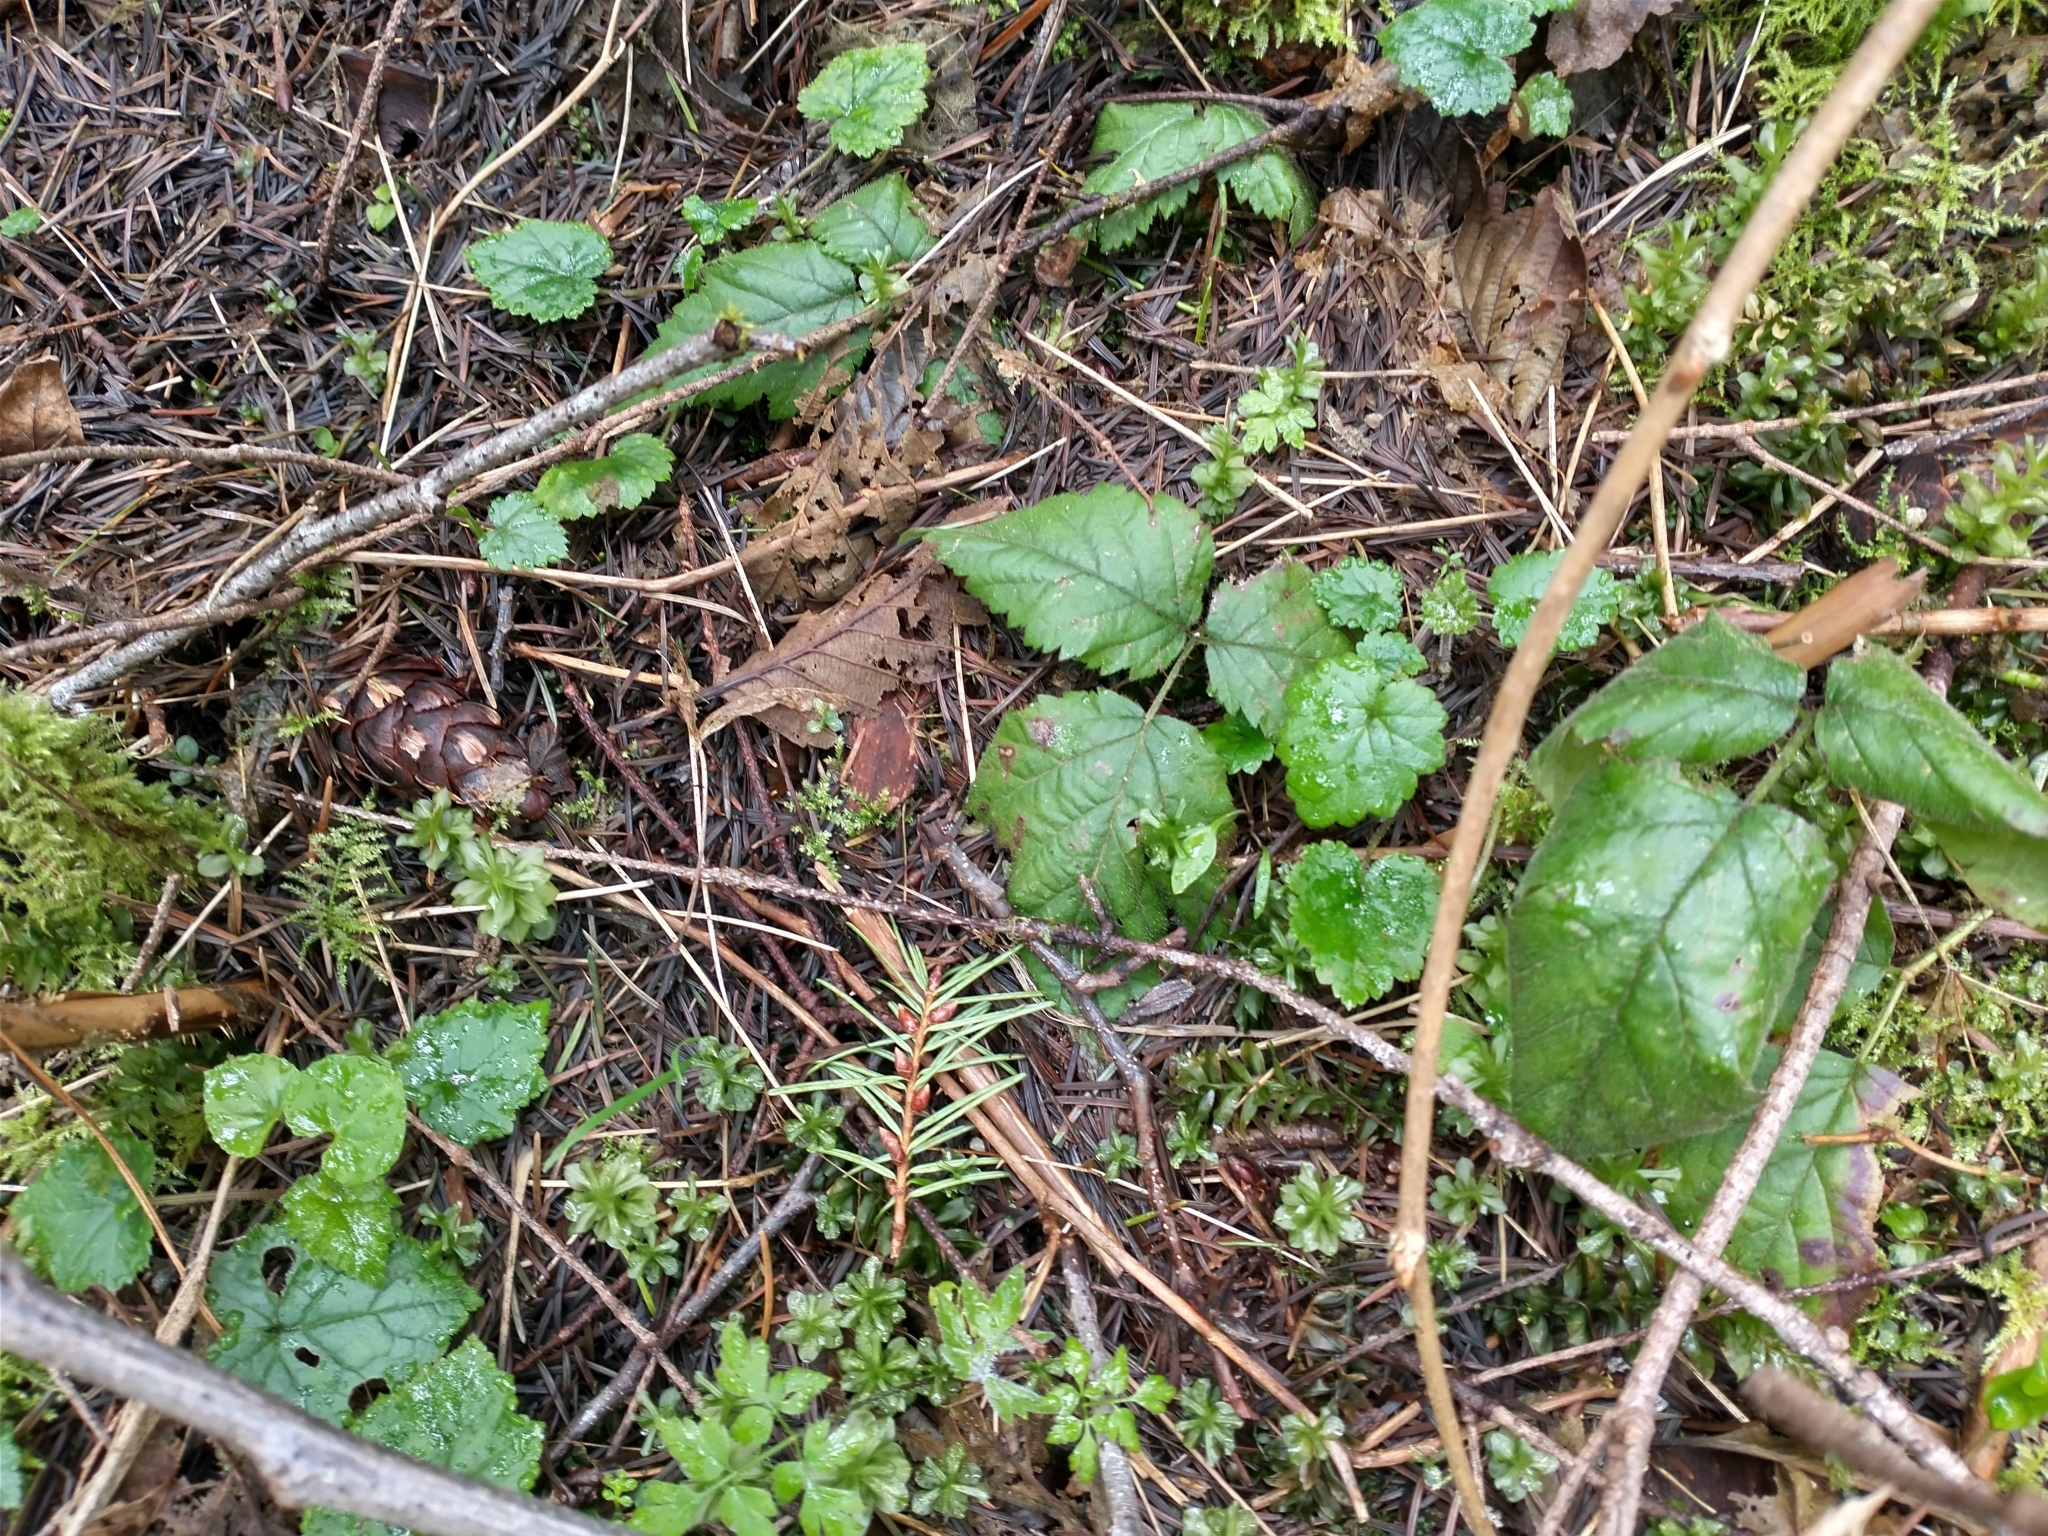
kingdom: Plantae
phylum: Tracheophyta
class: Magnoliopsida
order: Rosales
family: Rosaceae
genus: Rubus
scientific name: Rubus ursinus
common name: Pacific blackberry
